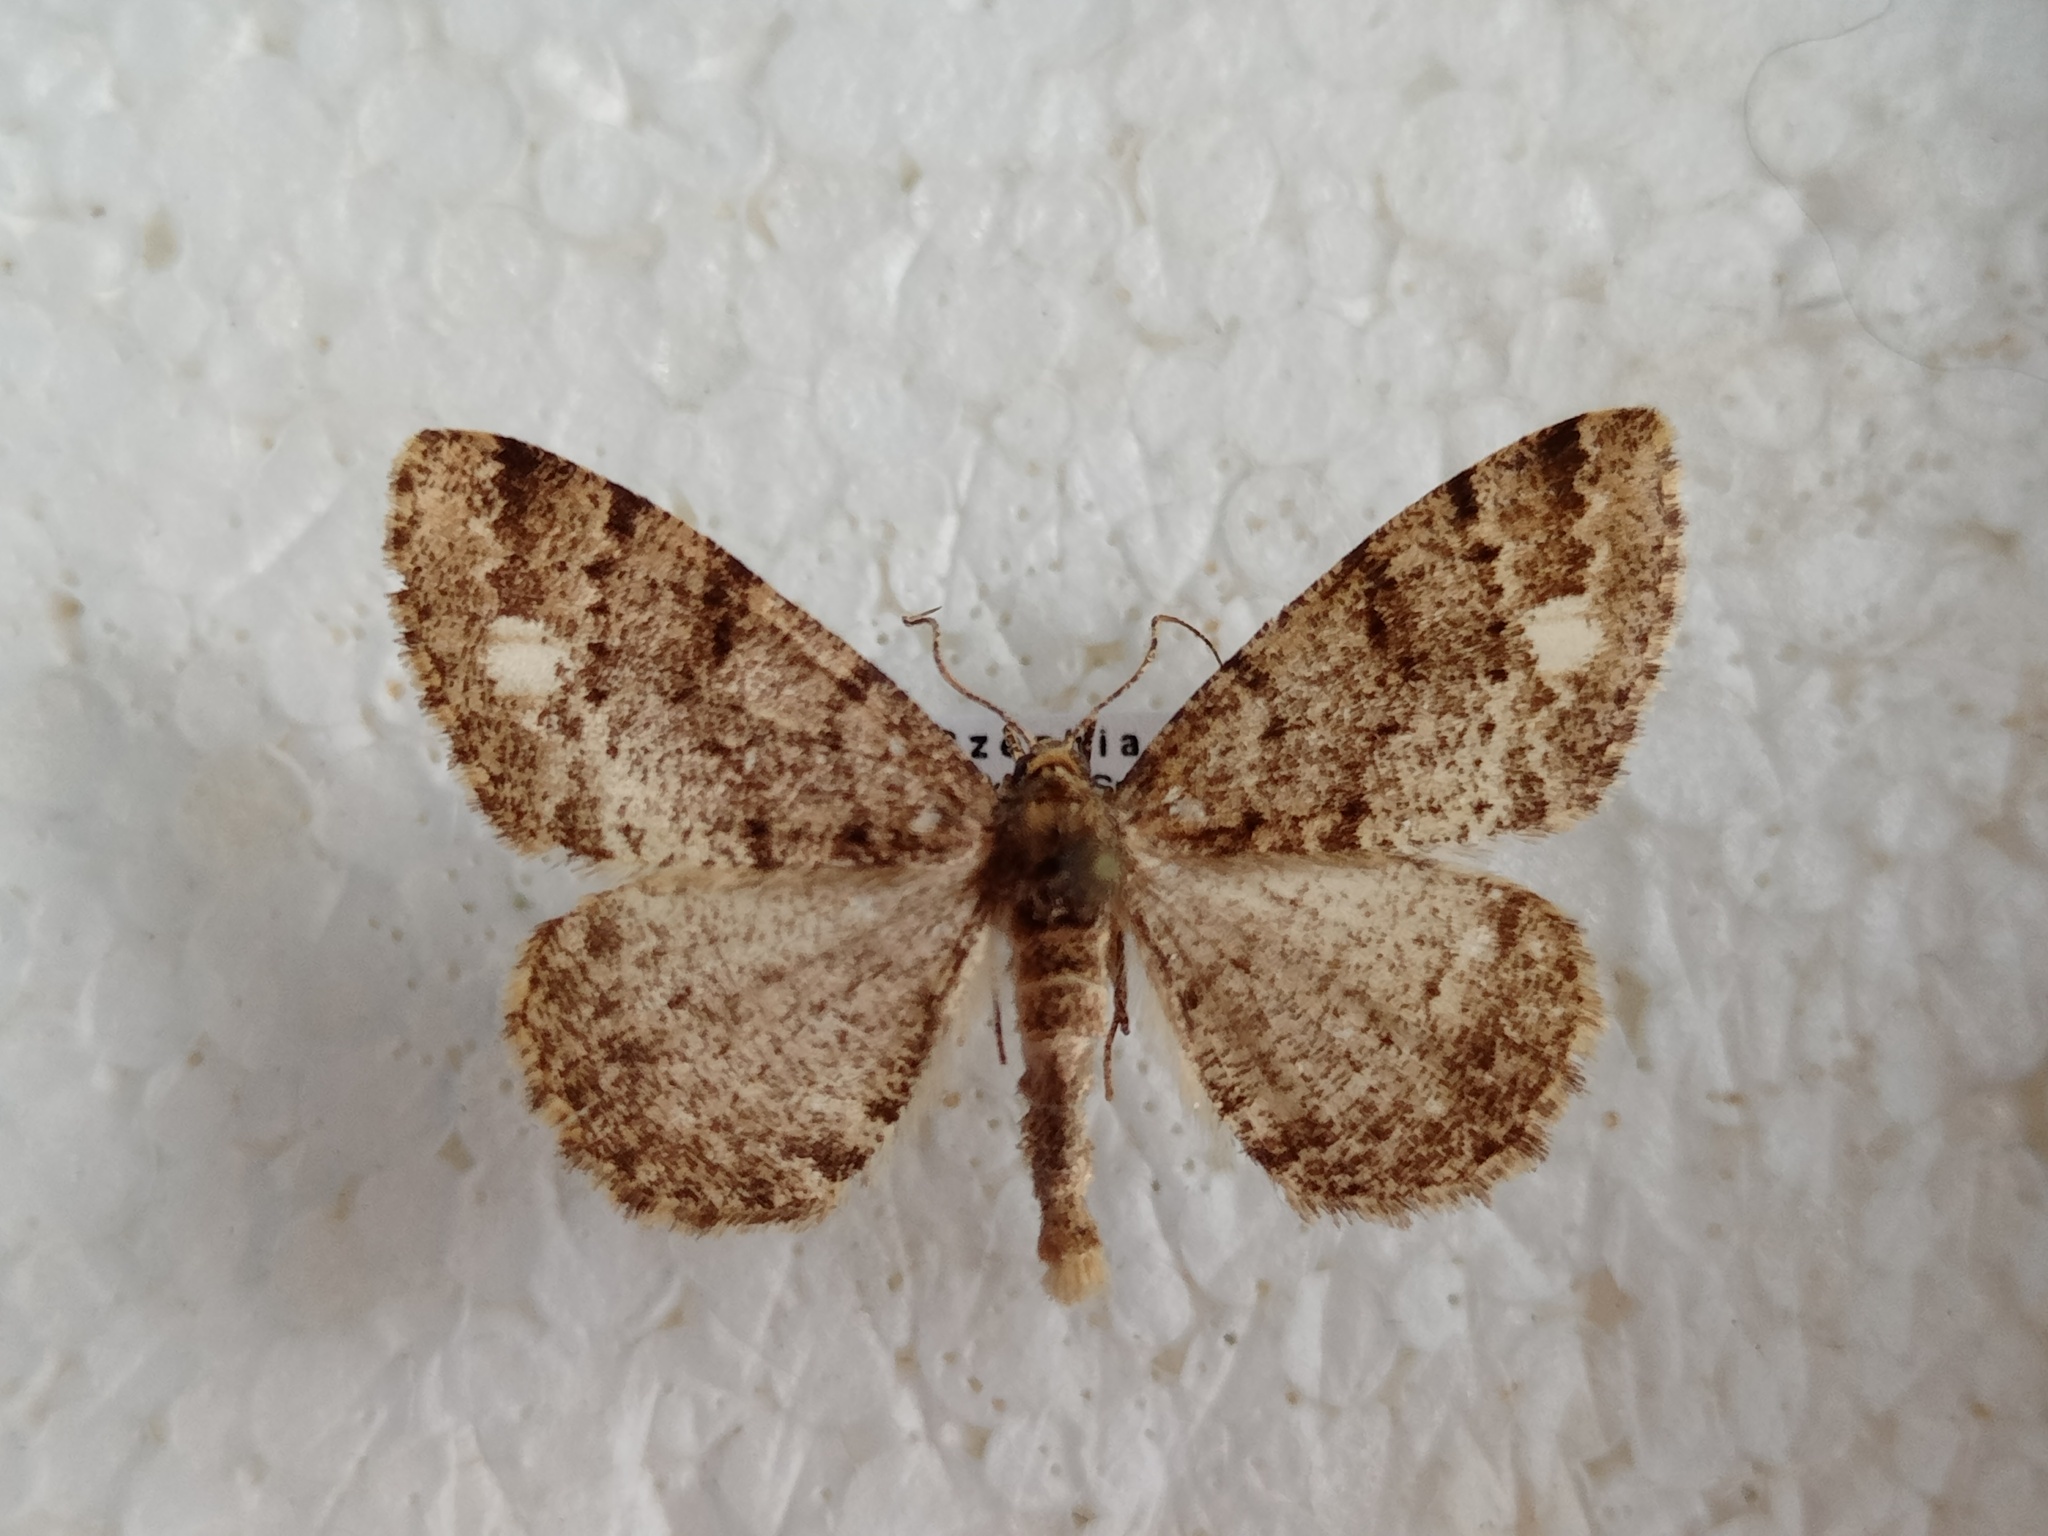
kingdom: Animalia
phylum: Arthropoda
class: Insecta
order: Lepidoptera
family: Geometridae
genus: Parectropis
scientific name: Parectropis similaria
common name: Brindled white-spot
